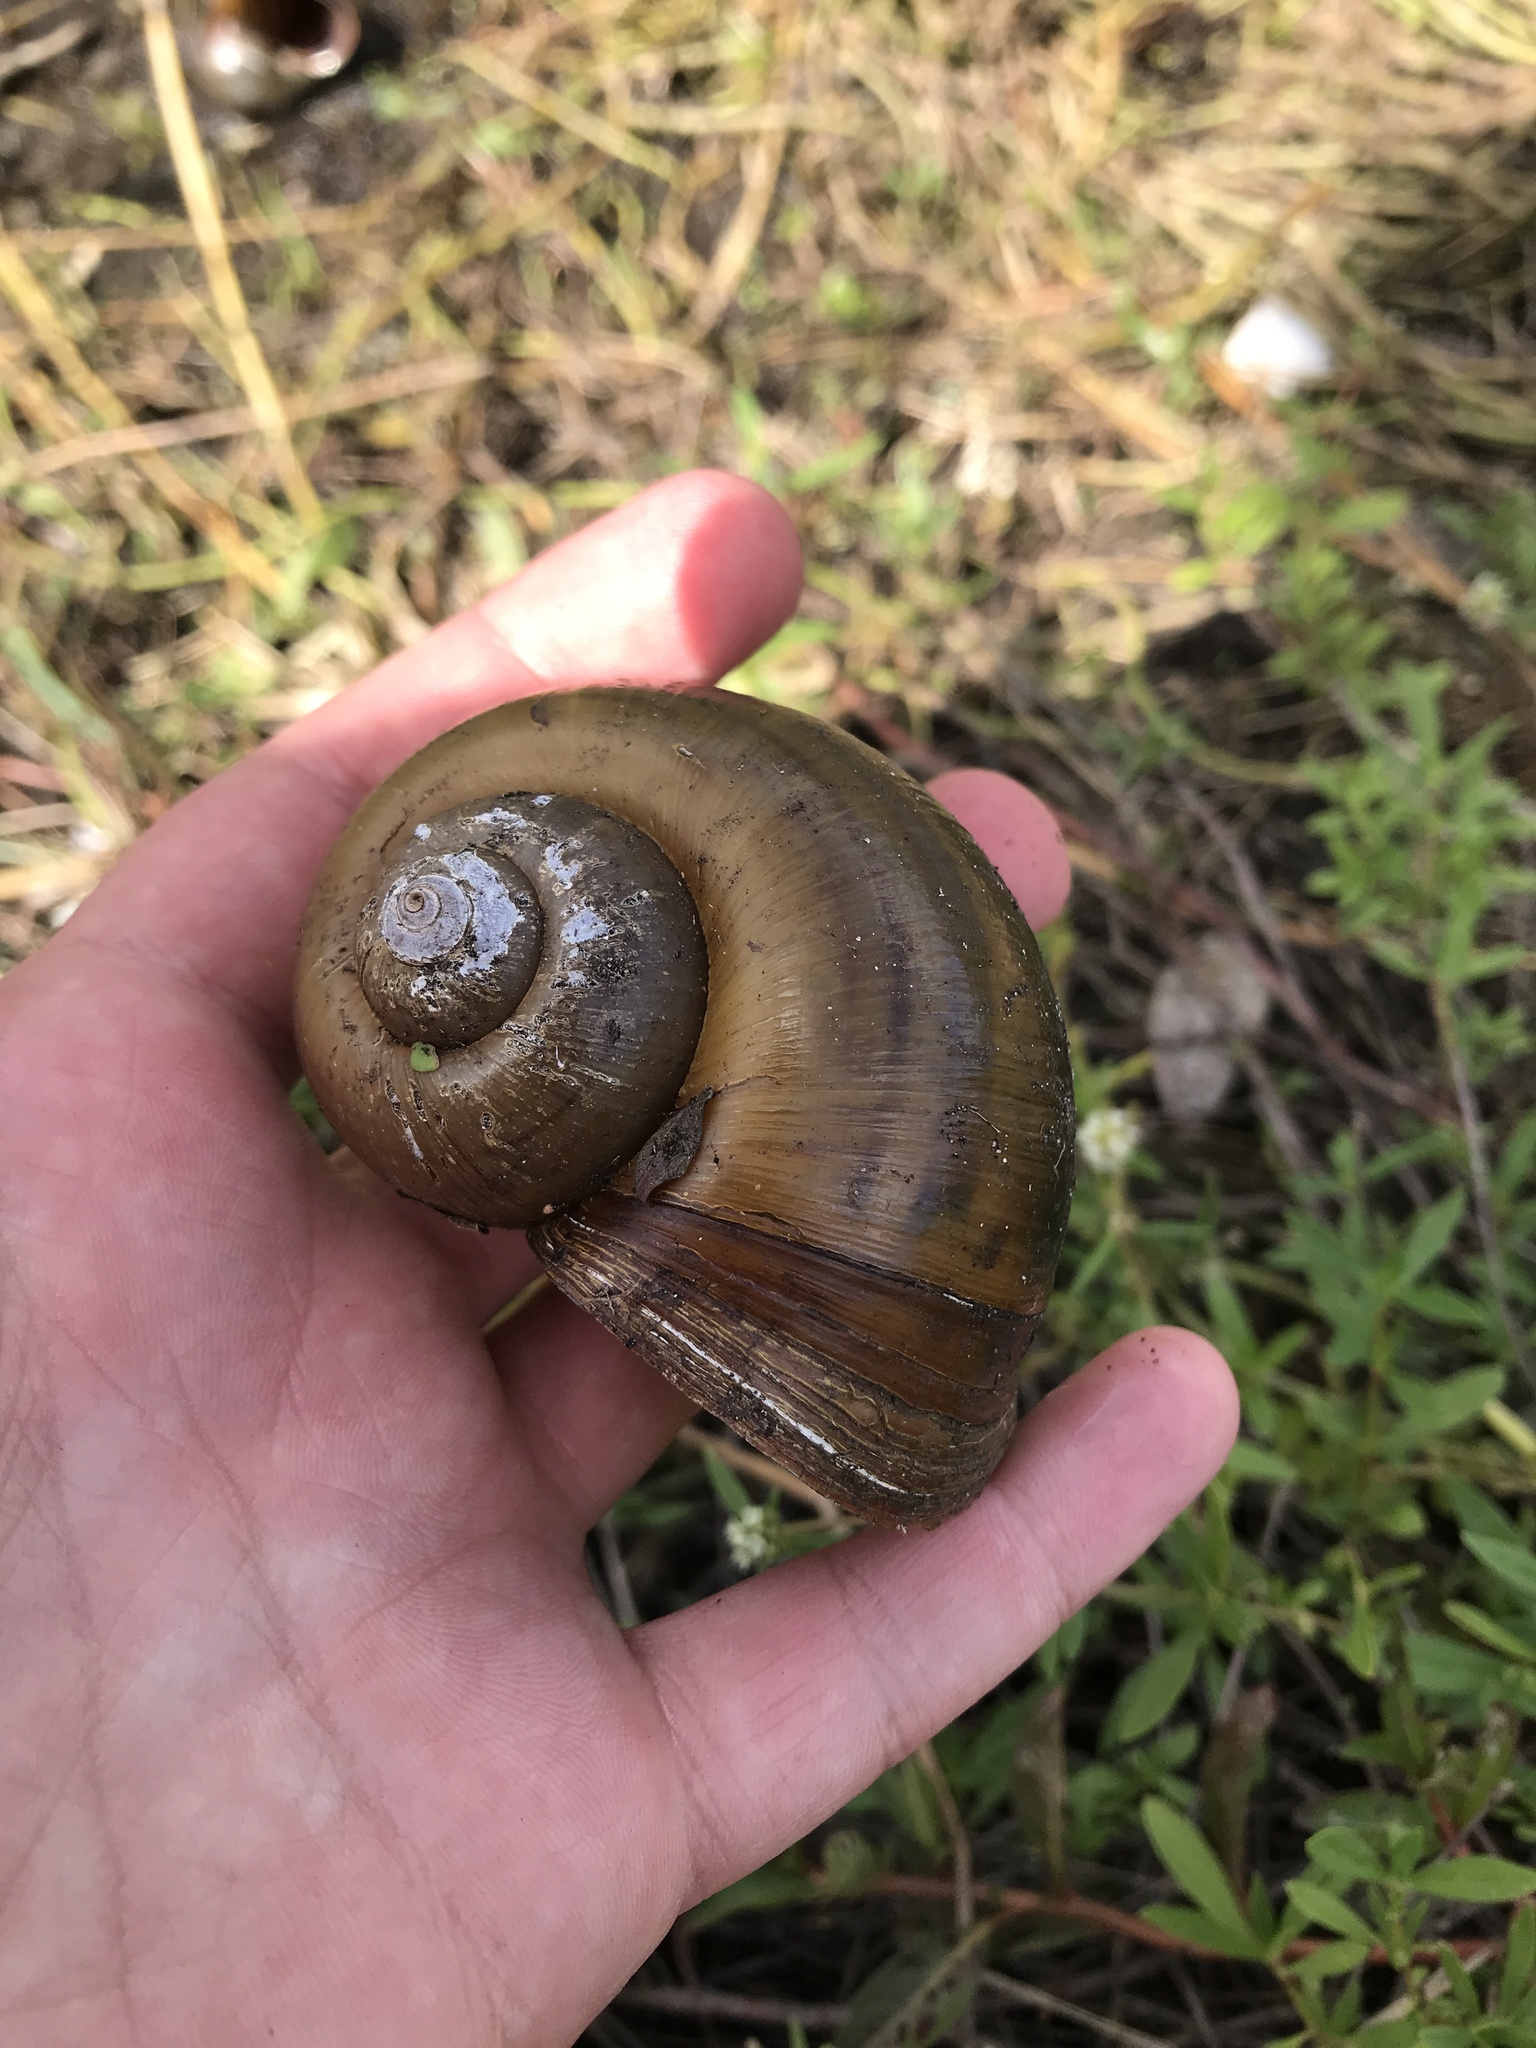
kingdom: Animalia
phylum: Mollusca
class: Gastropoda
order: Architaenioglossa
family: Ampullariidae
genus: Pomacea
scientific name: Pomacea maculata
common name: Giant applesnail
